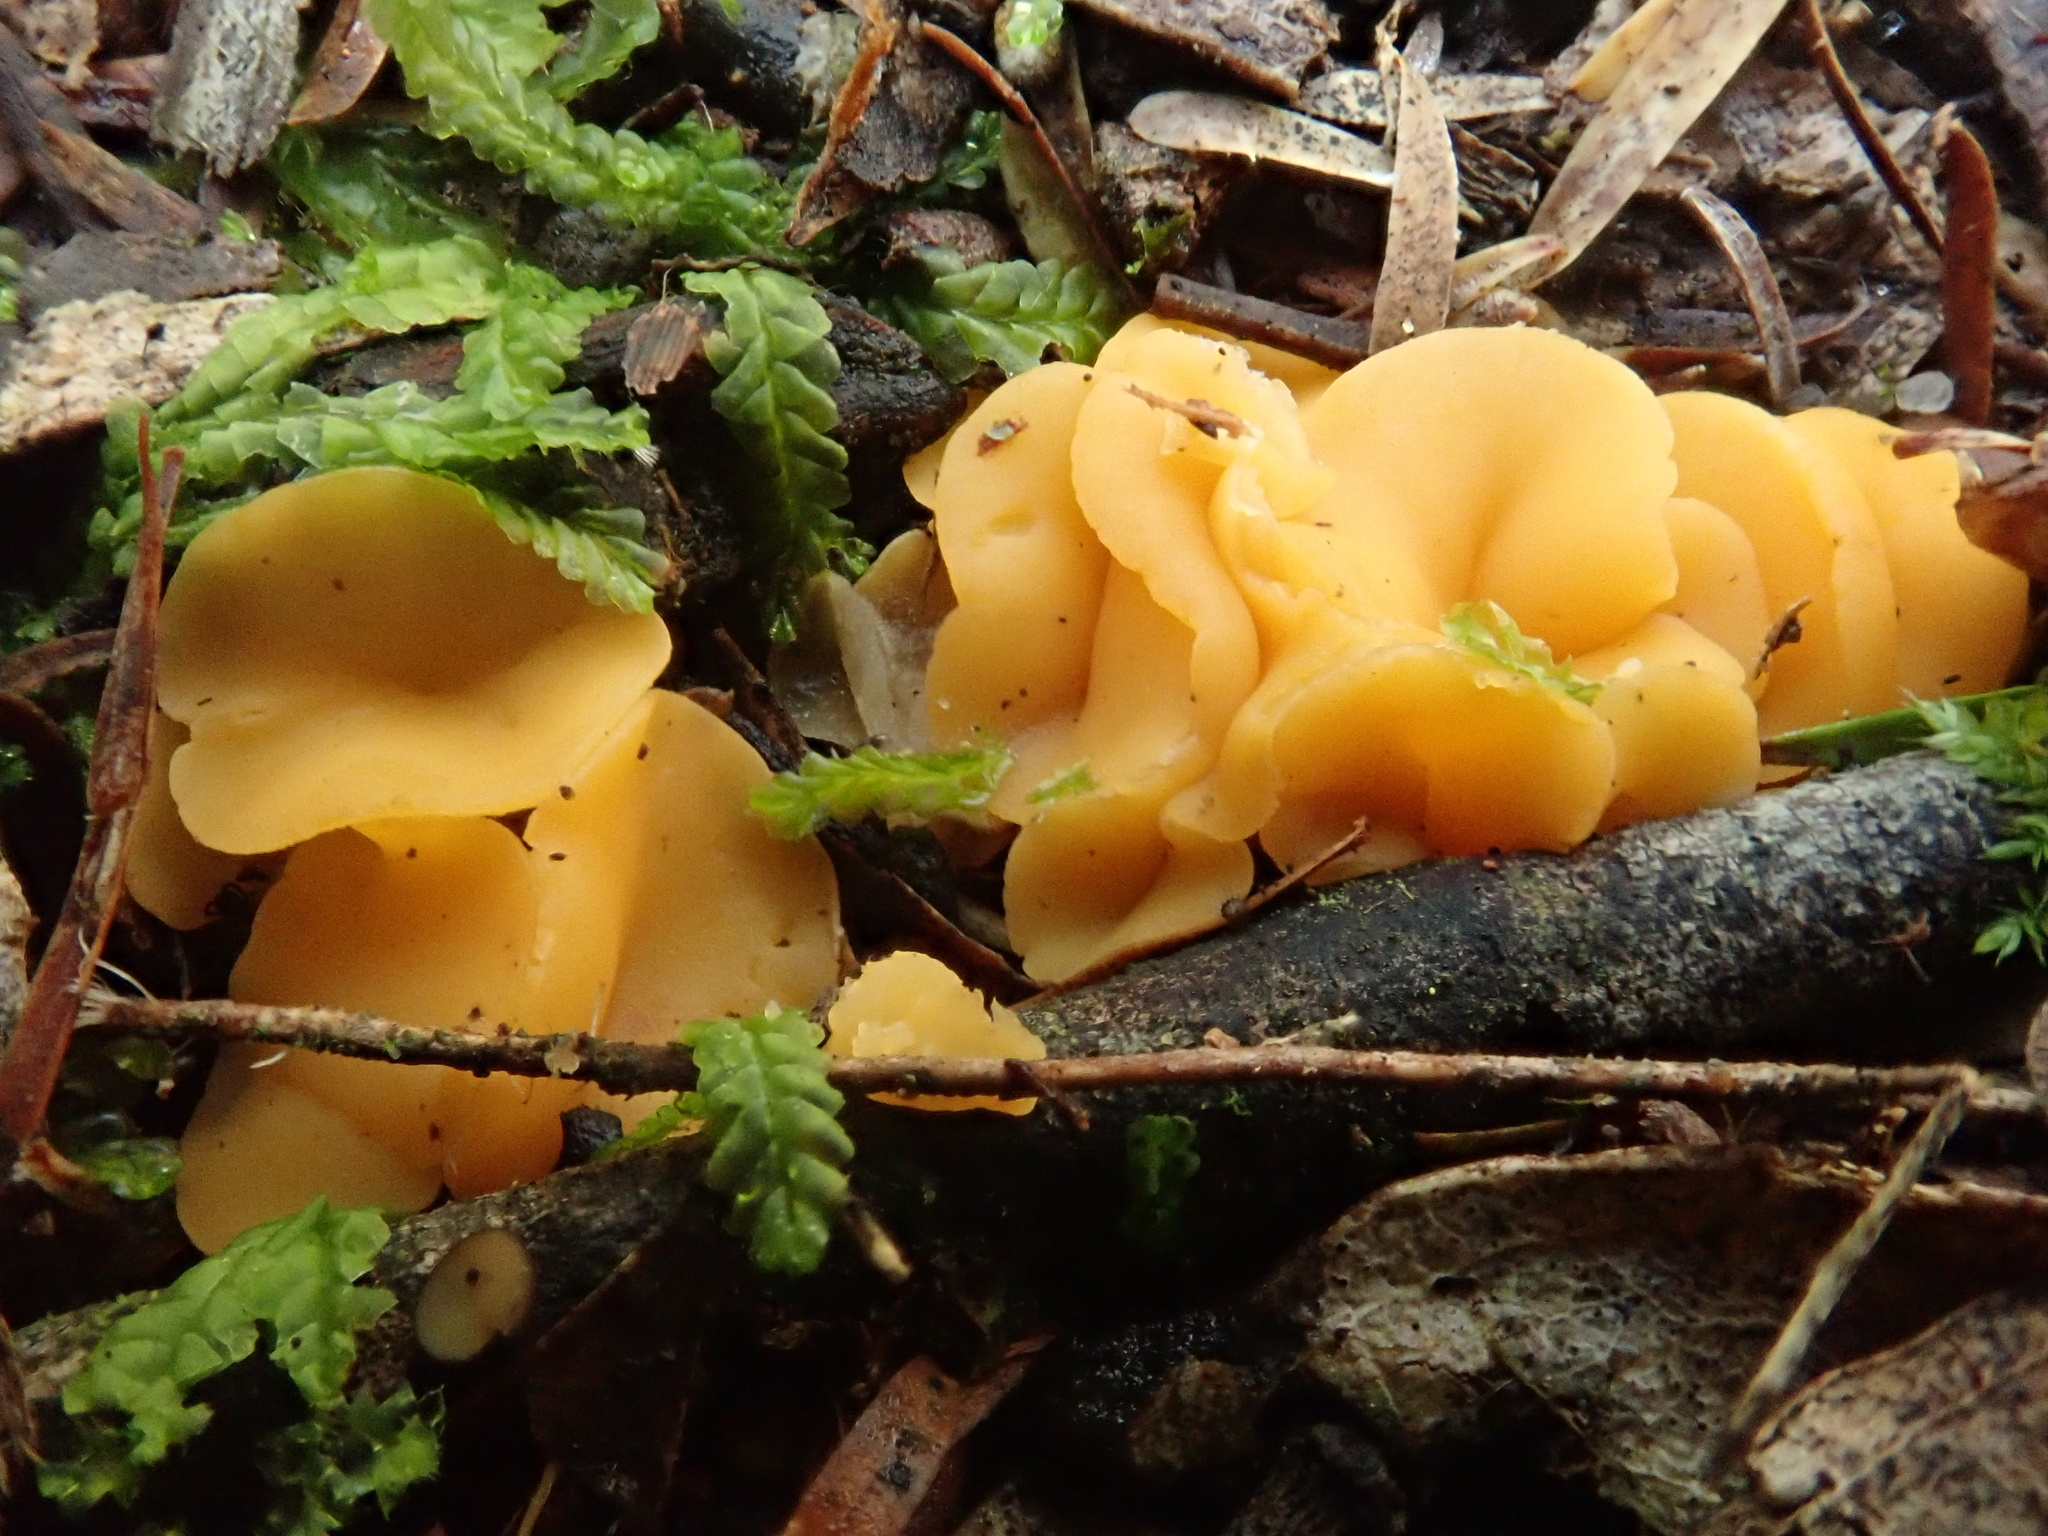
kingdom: Fungi
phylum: Ascomycota
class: Leotiomycetes
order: Helotiales
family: Helotiaceae
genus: Phaeohelotium
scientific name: Phaeohelotium baileyanum
